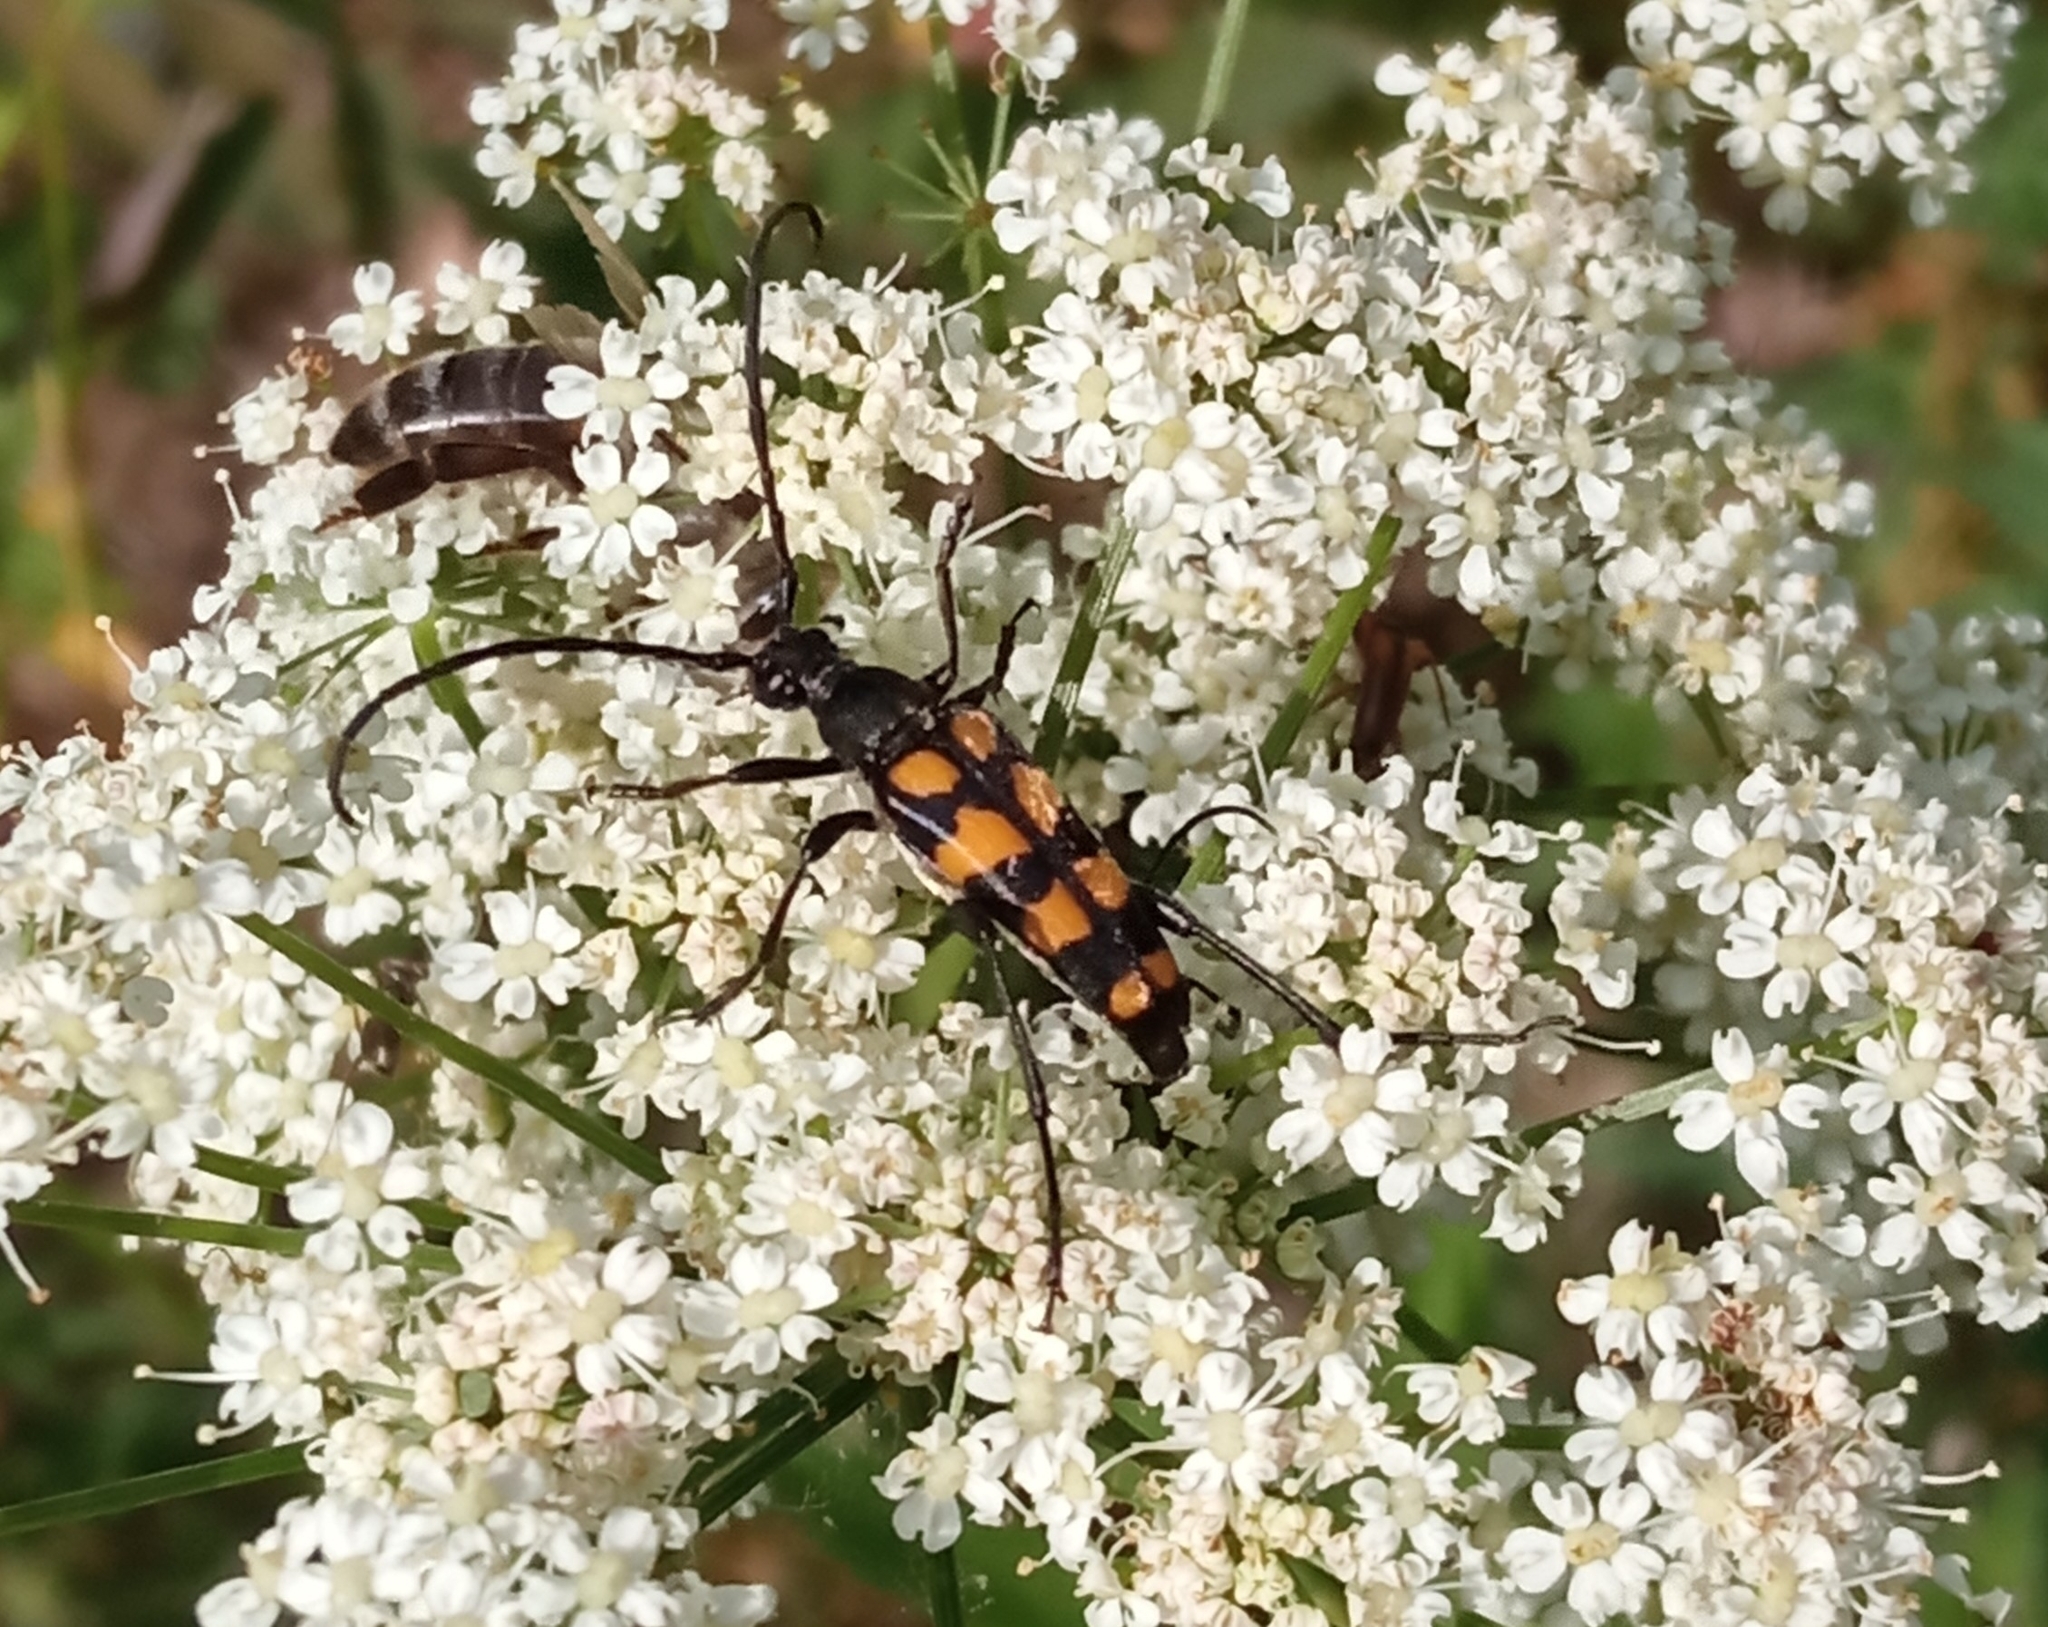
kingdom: Animalia
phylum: Arthropoda
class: Insecta
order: Coleoptera
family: Cerambycidae
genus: Leptura
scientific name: Leptura quadrifasciata
